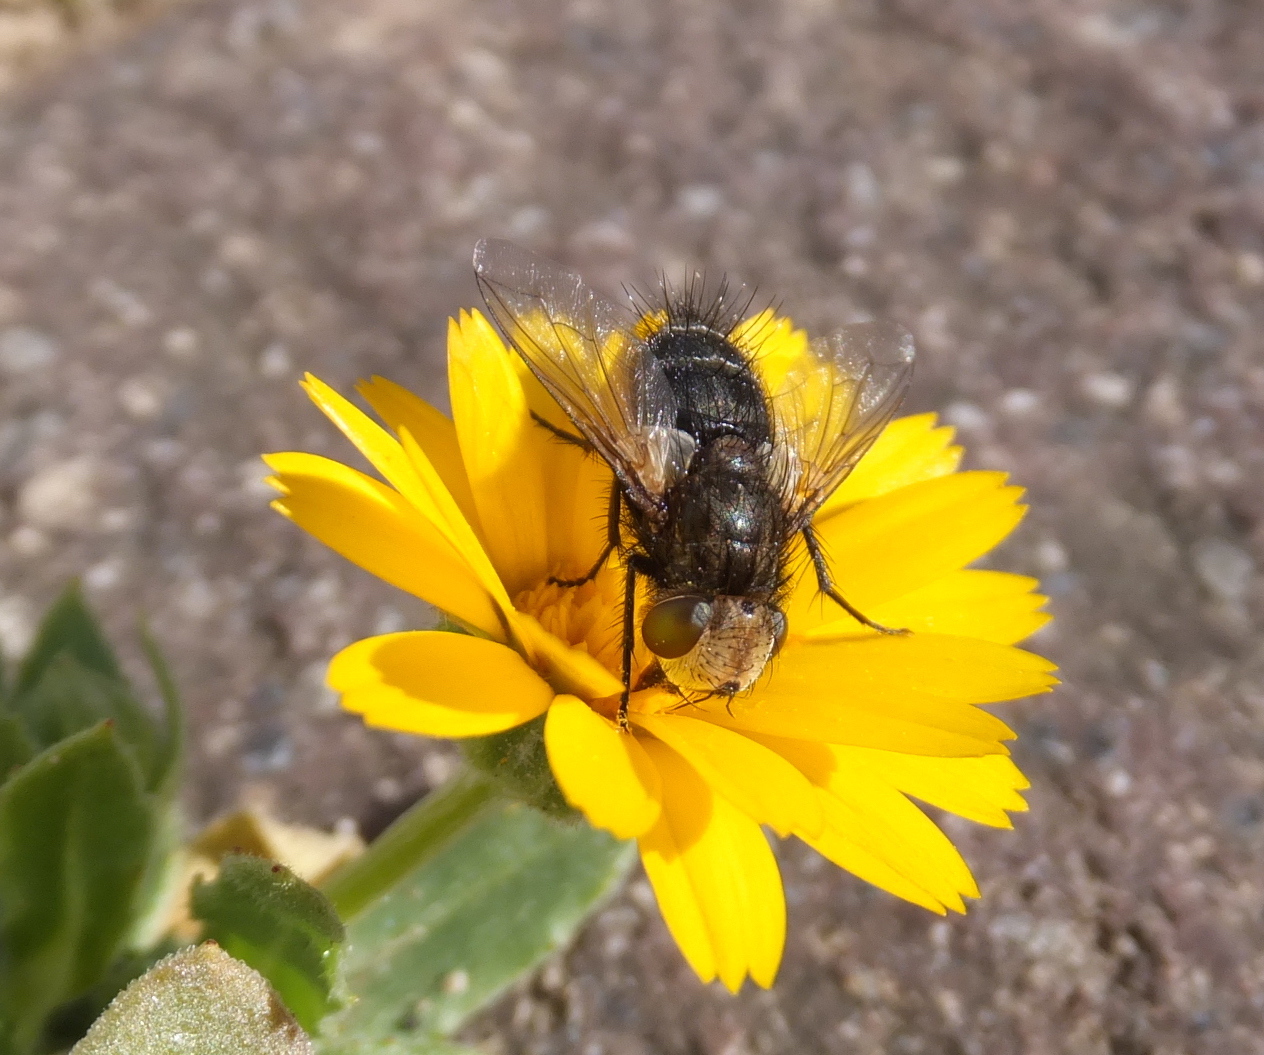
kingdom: Animalia
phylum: Arthropoda
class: Insecta
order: Diptera
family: Tachinidae
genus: Gonia
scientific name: Gonia picea
